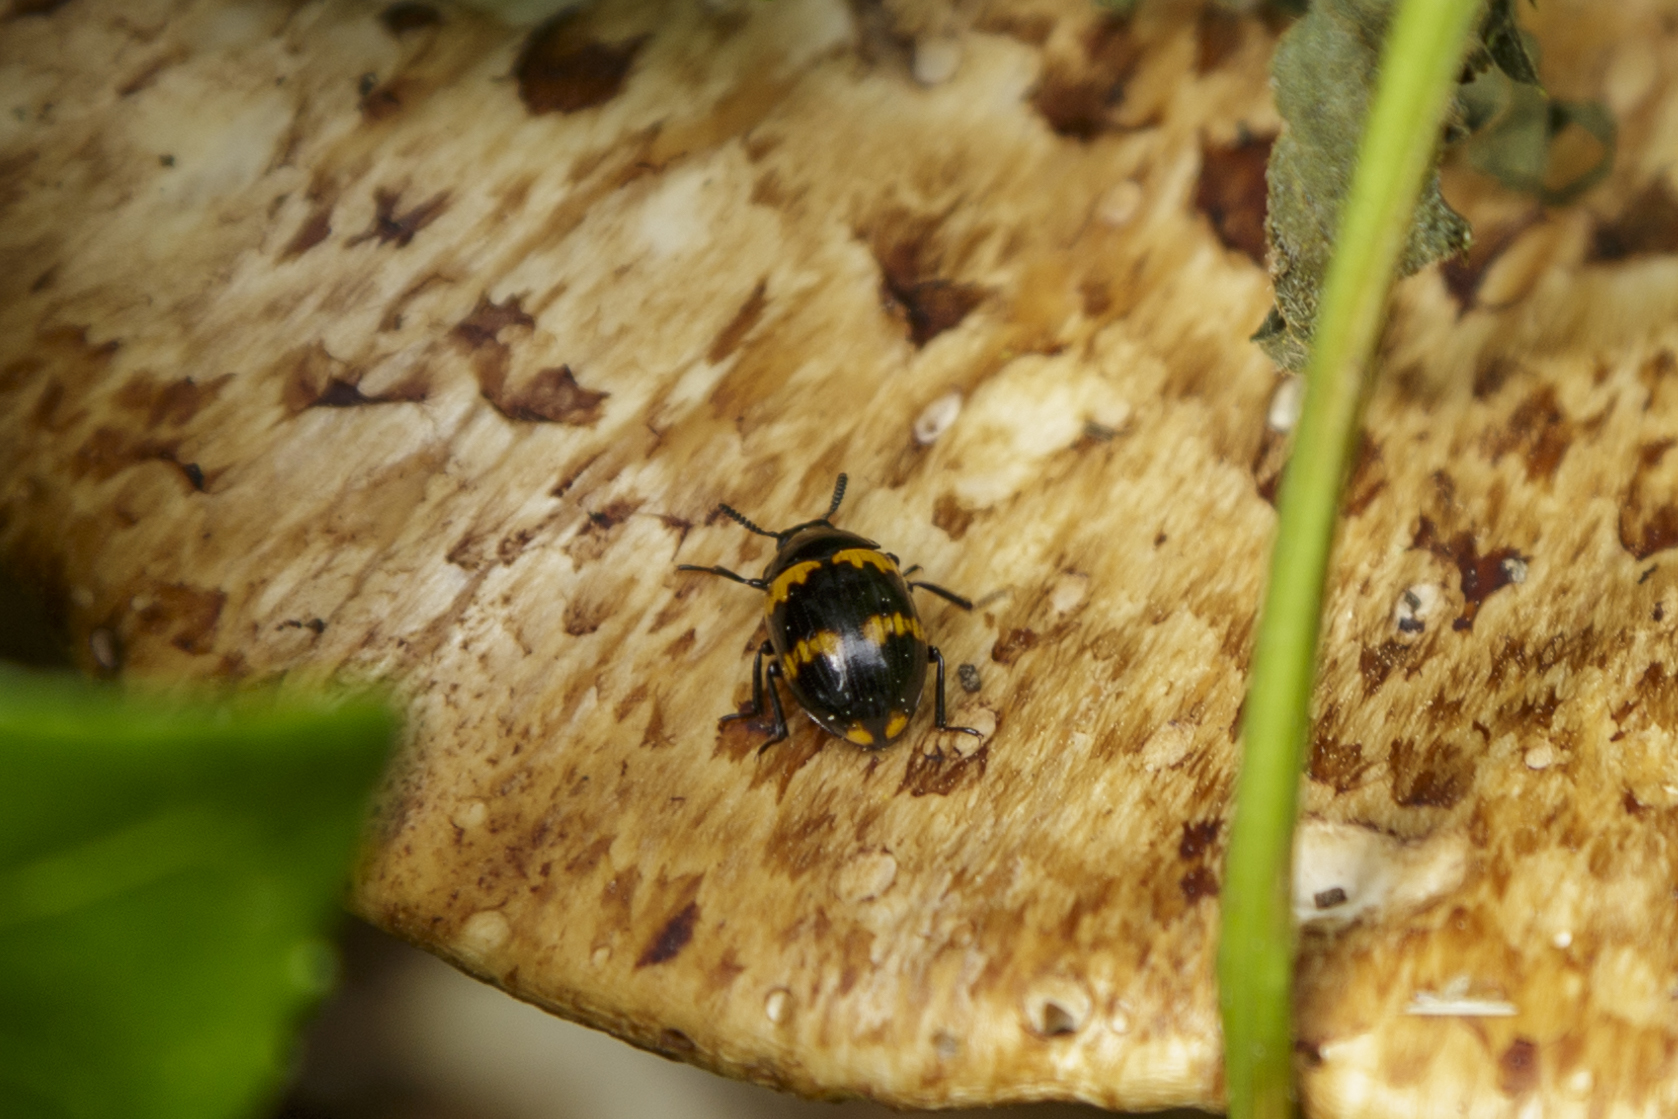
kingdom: Animalia
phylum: Arthropoda
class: Insecta
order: Coleoptera
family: Tenebrionidae
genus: Diaperis
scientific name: Diaperis boleti
